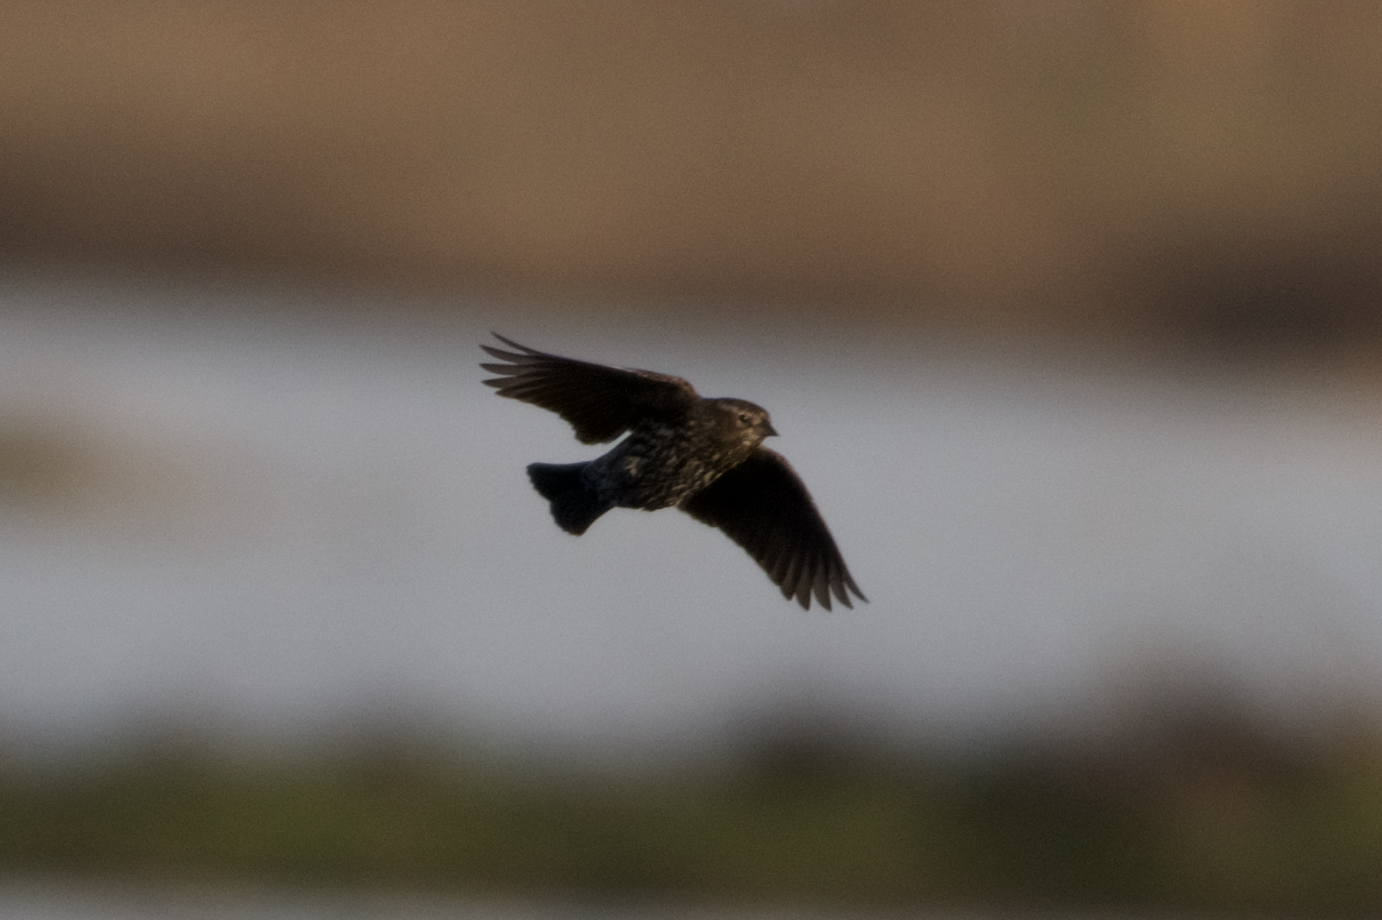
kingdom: Animalia
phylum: Chordata
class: Aves
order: Passeriformes
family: Icteridae
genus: Agelaius
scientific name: Agelaius phoeniceus
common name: Red-winged blackbird
